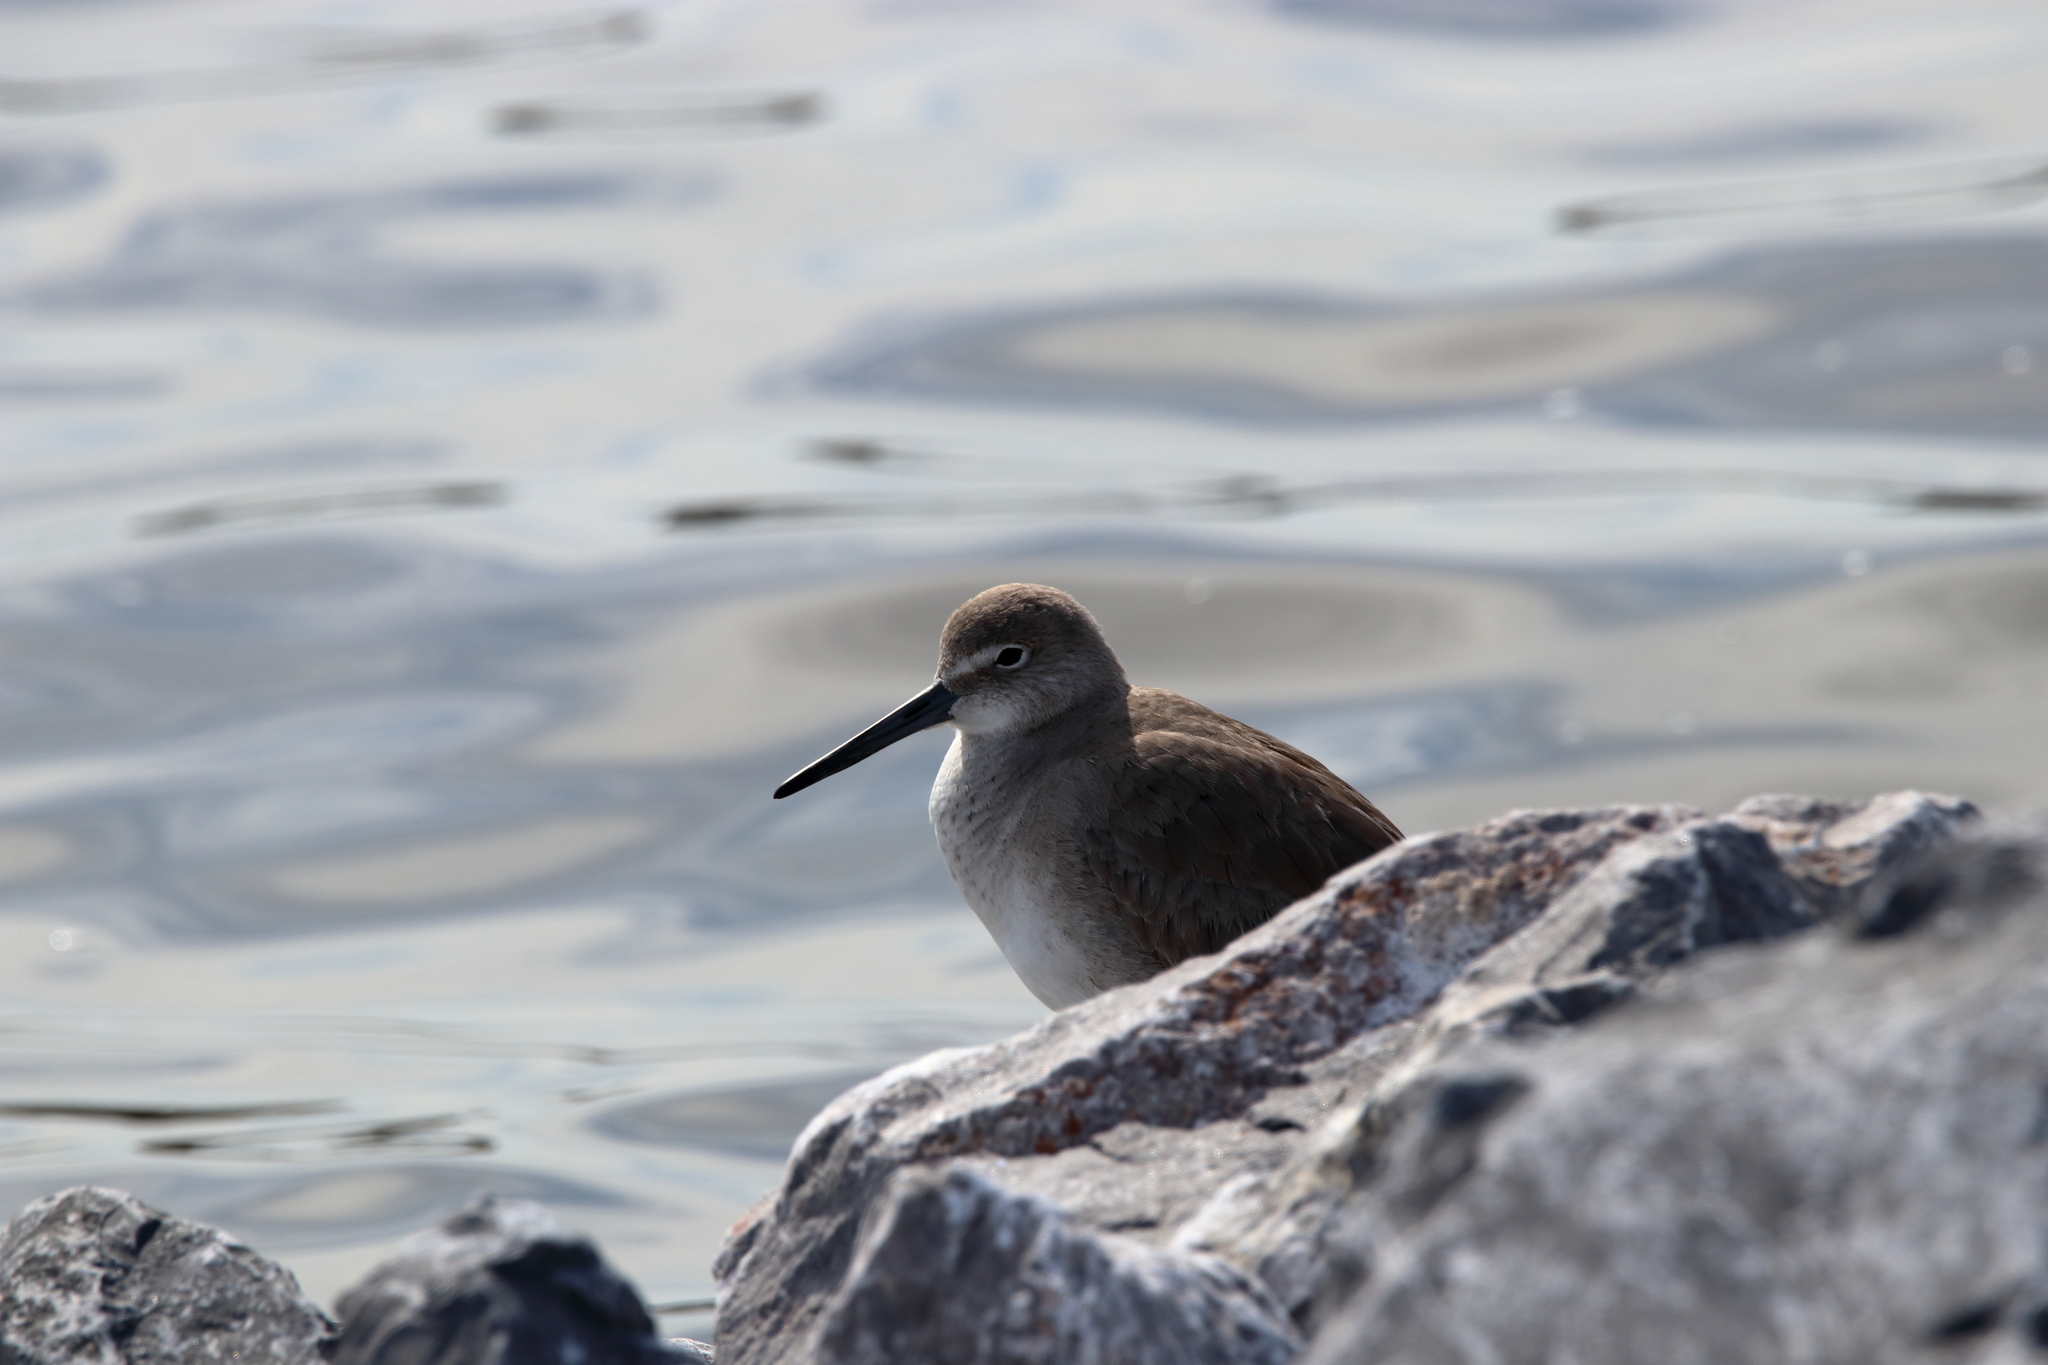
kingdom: Animalia
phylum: Chordata
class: Aves
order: Charadriiformes
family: Scolopacidae
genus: Tringa
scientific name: Tringa semipalmata
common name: Willet
